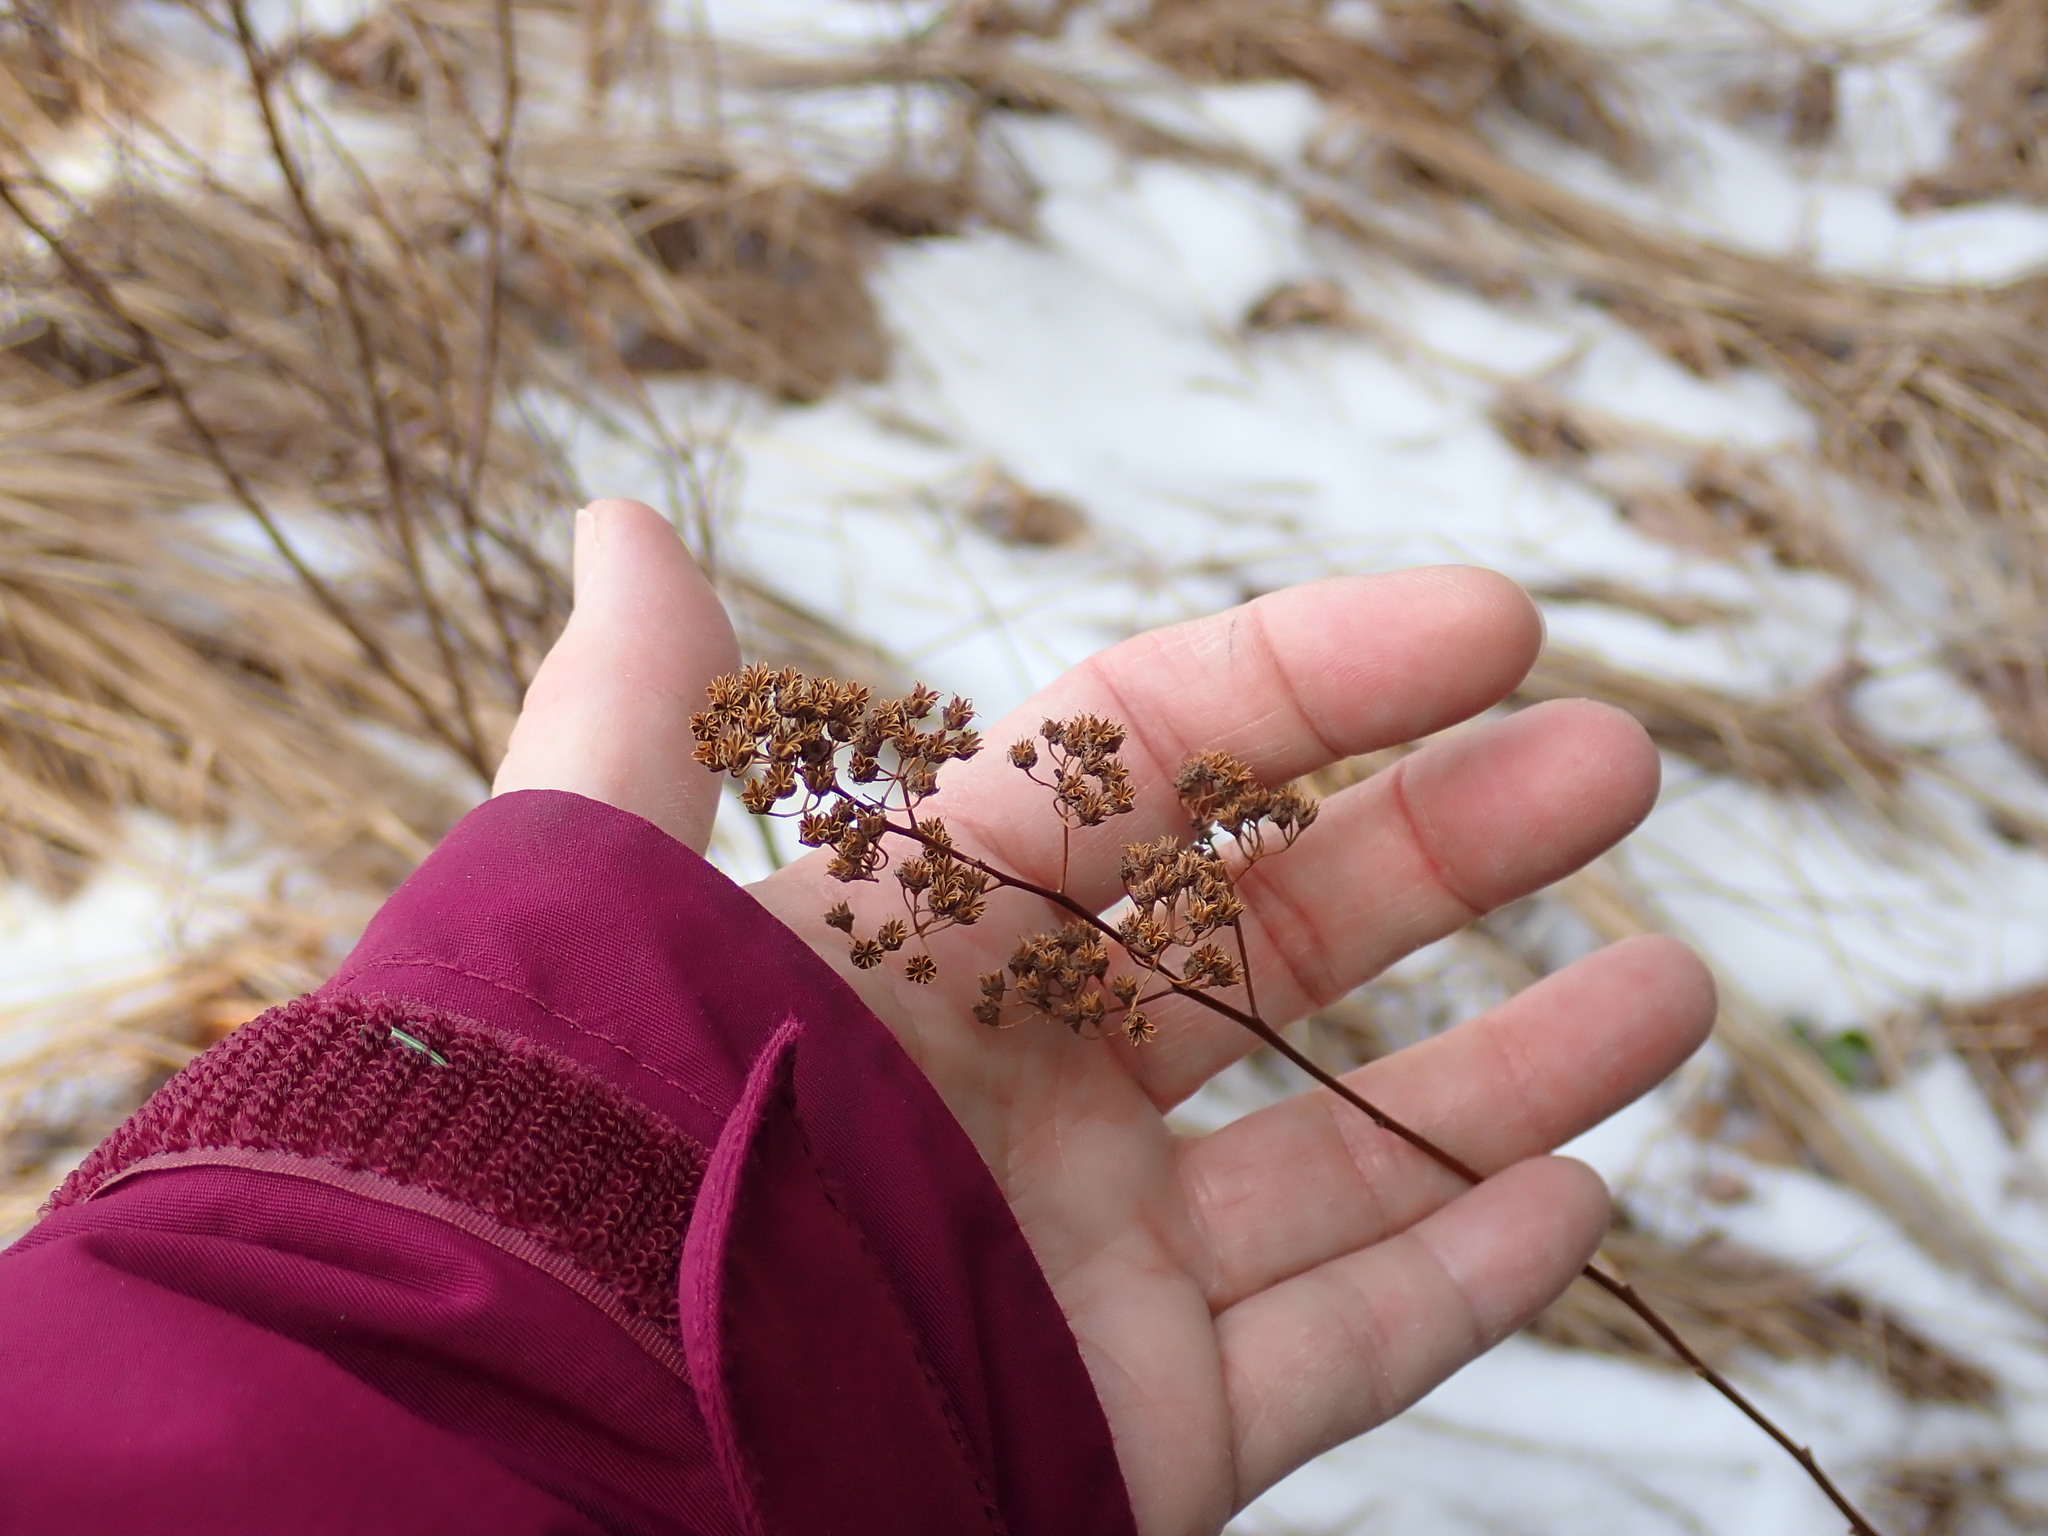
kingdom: Plantae
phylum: Tracheophyta
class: Magnoliopsida
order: Rosales
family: Rosaceae
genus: Spiraea
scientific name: Spiraea alba
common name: Pale bridewort
